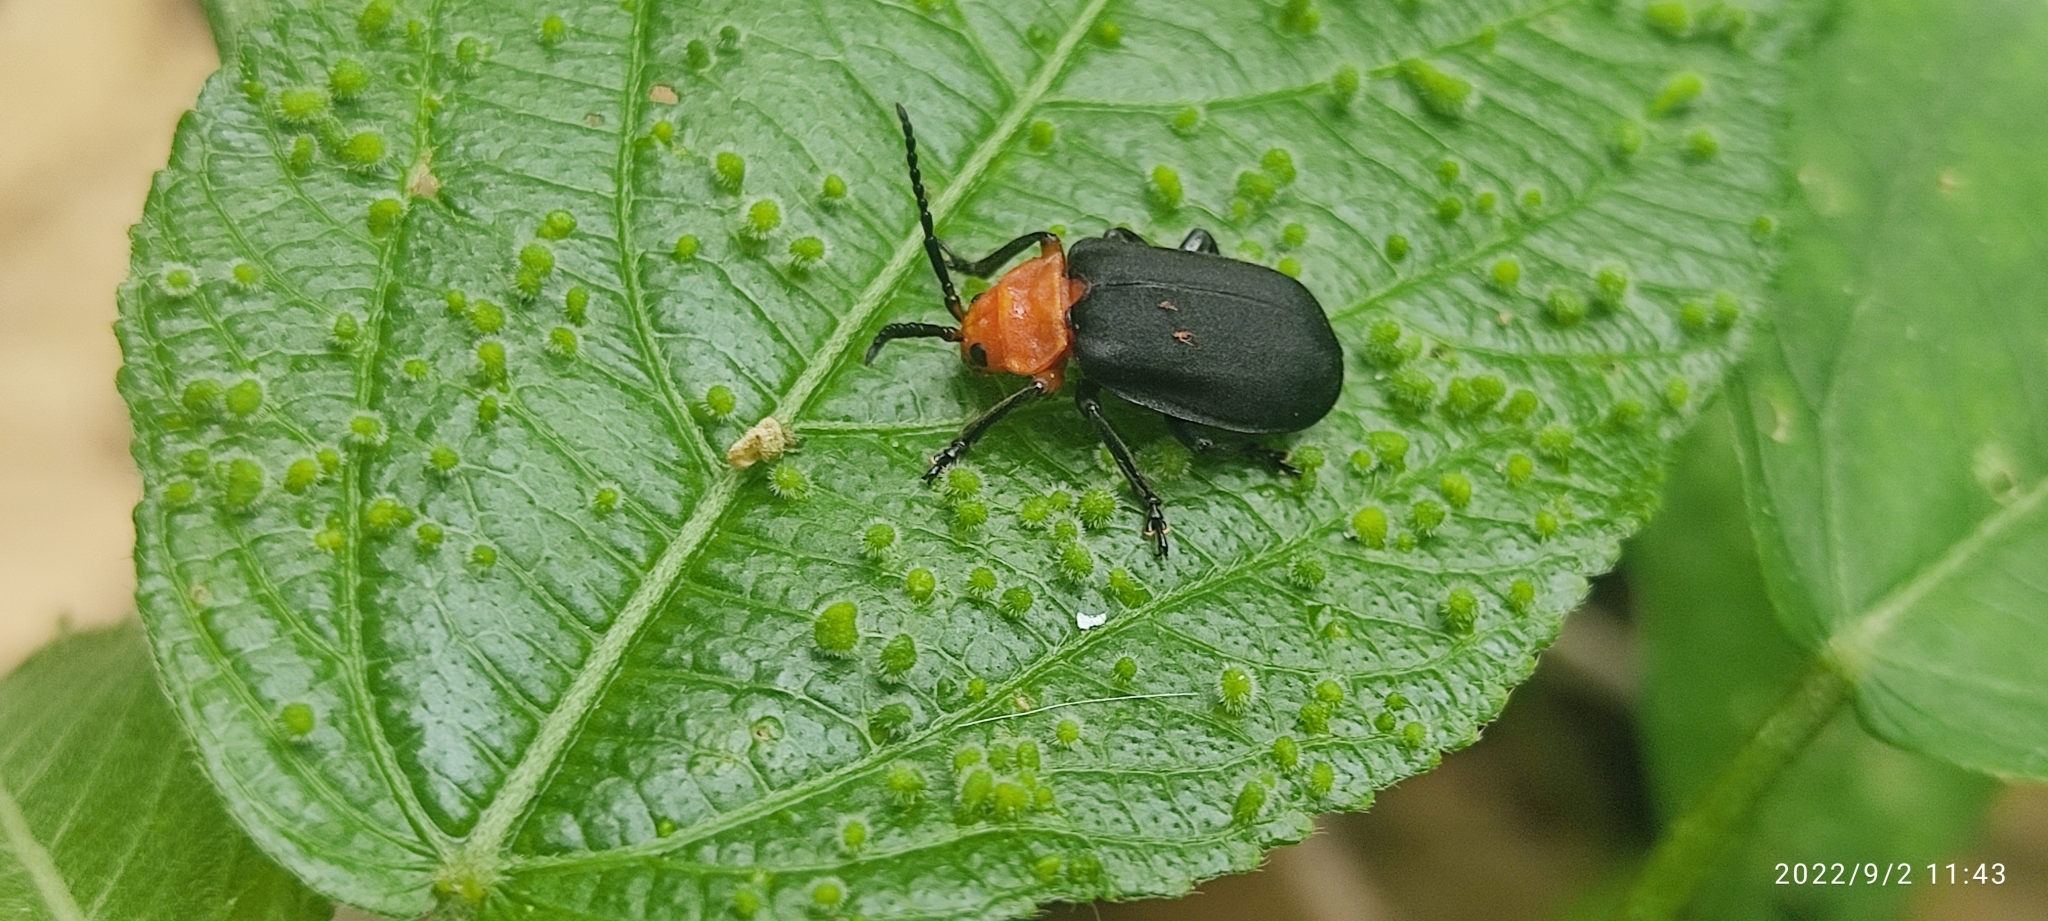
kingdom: Animalia
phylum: Arthropoda
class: Insecta
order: Coleoptera
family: Chrysomelidae
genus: Coelomera
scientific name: Coelomera cajennensis
